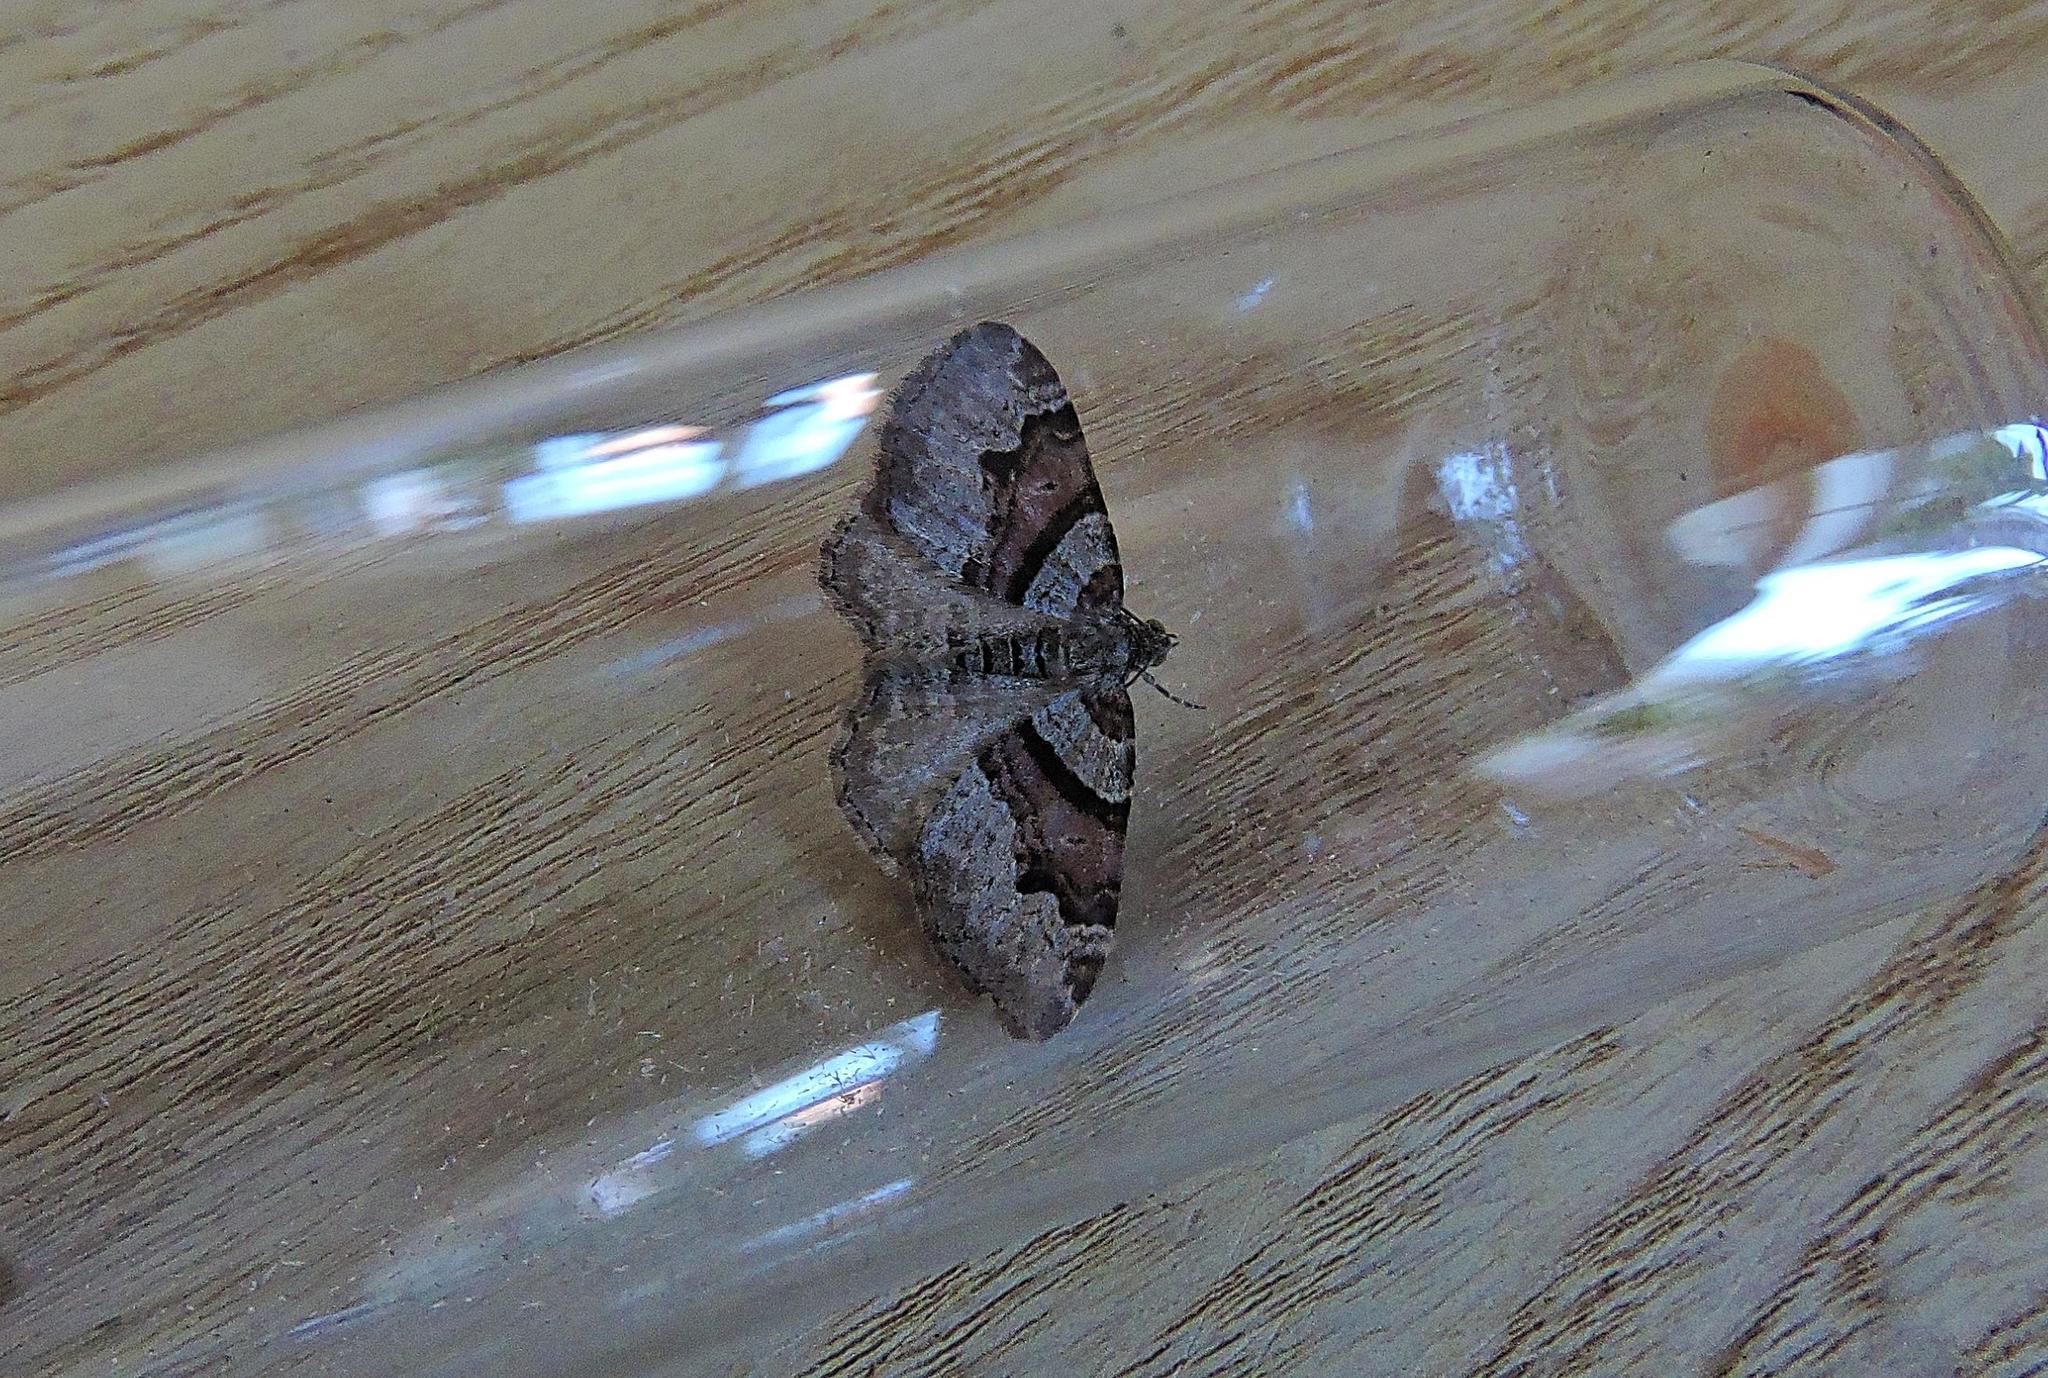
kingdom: Animalia
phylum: Arthropoda
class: Insecta
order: Lepidoptera
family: Geometridae
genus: Xanthorhoe
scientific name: Xanthorhoe designata
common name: Flame carpet
